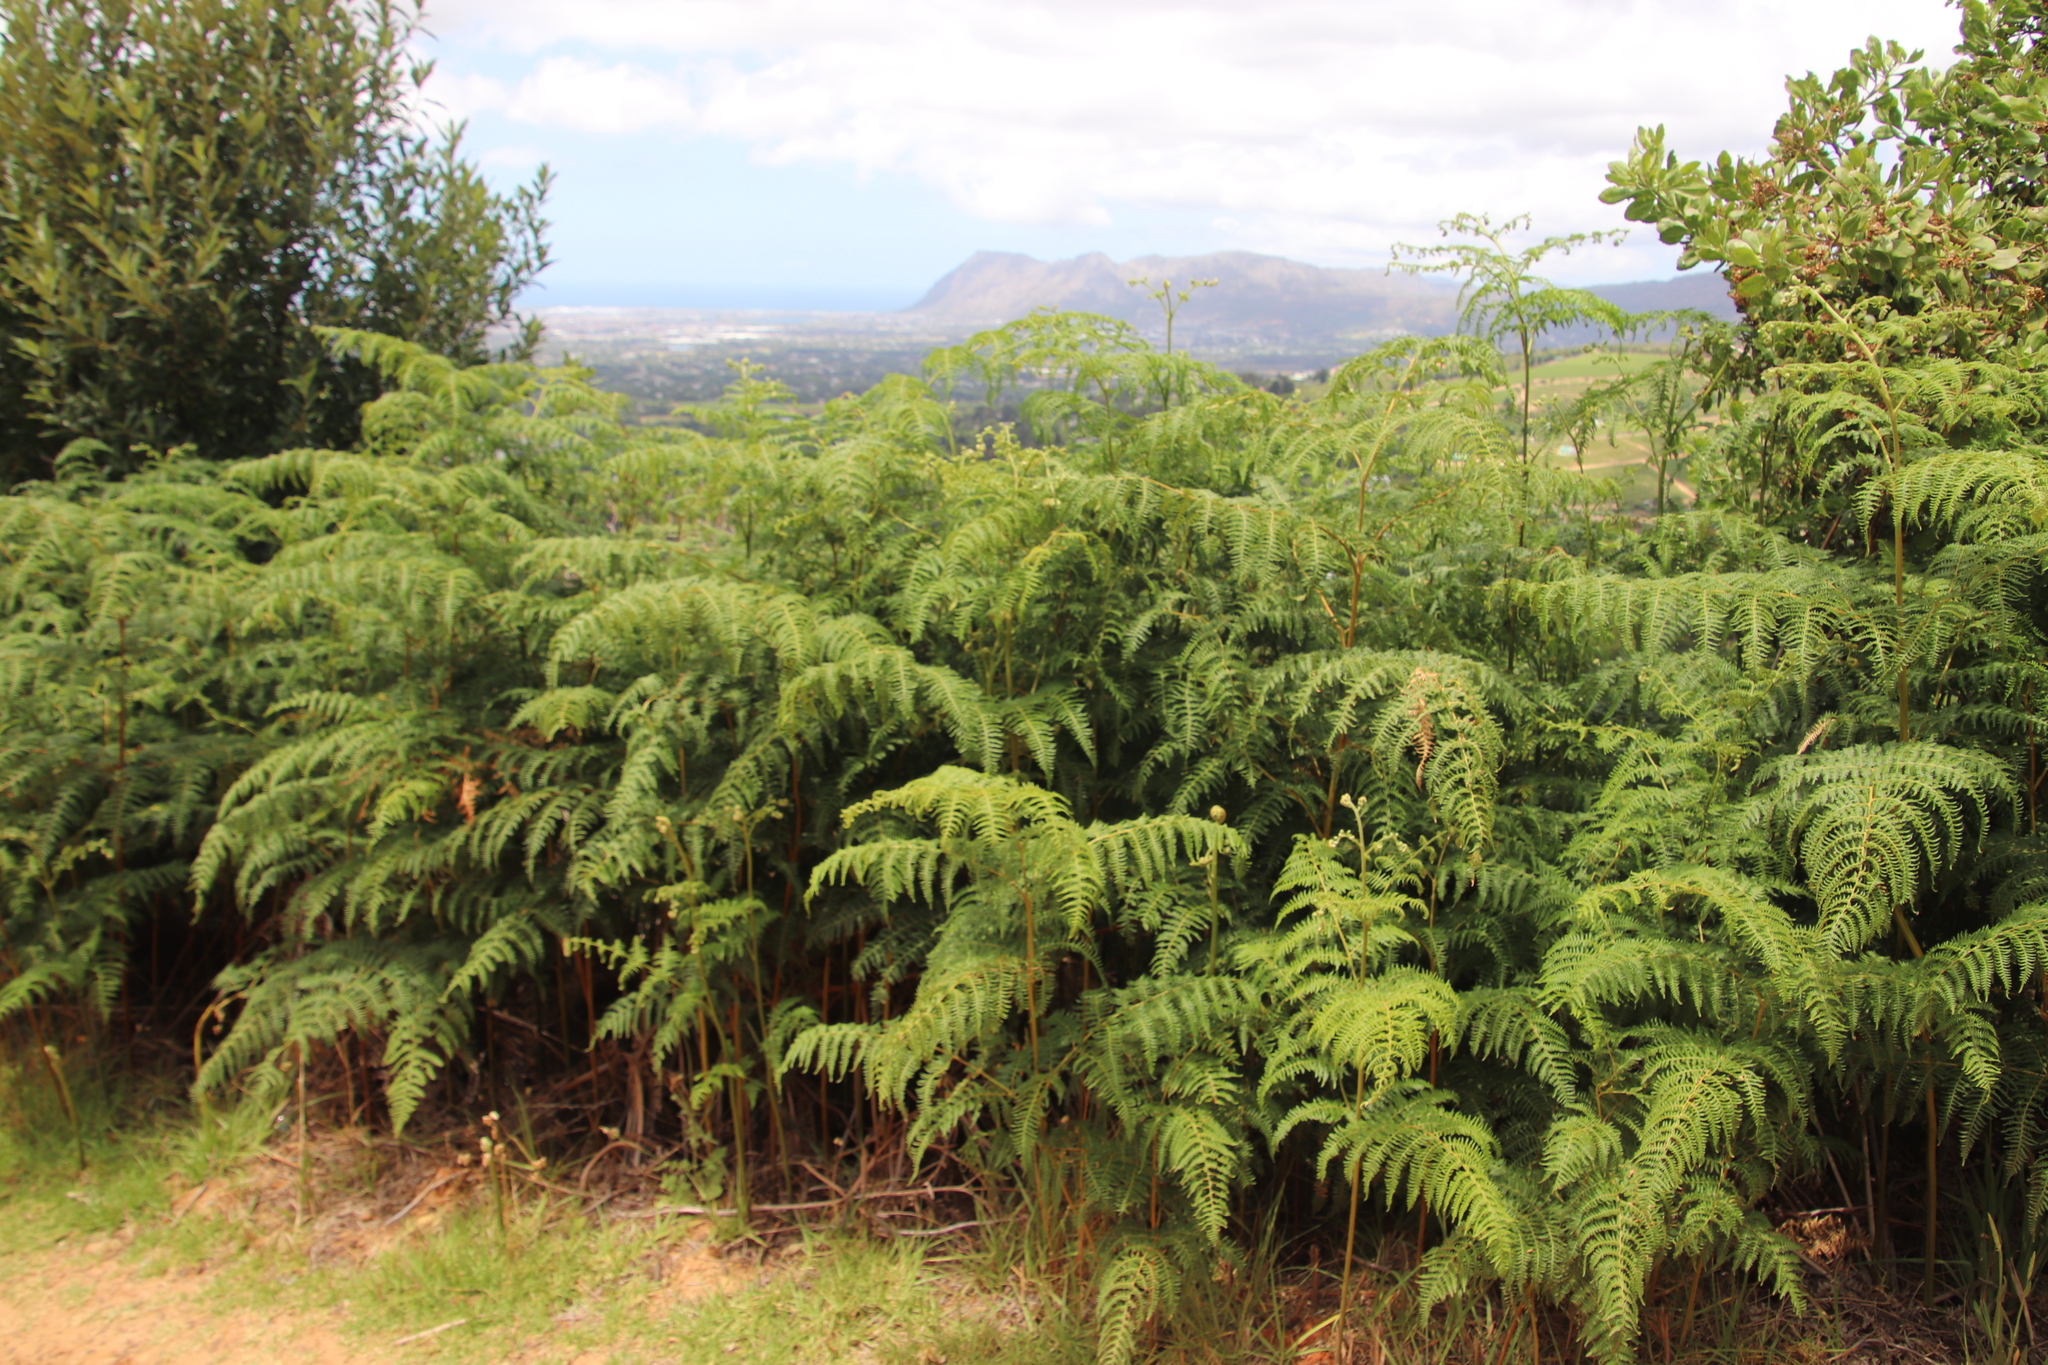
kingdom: Plantae
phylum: Tracheophyta
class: Polypodiopsida
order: Polypodiales
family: Dennstaedtiaceae
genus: Pteridium
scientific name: Pteridium aquilinum
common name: Bracken
